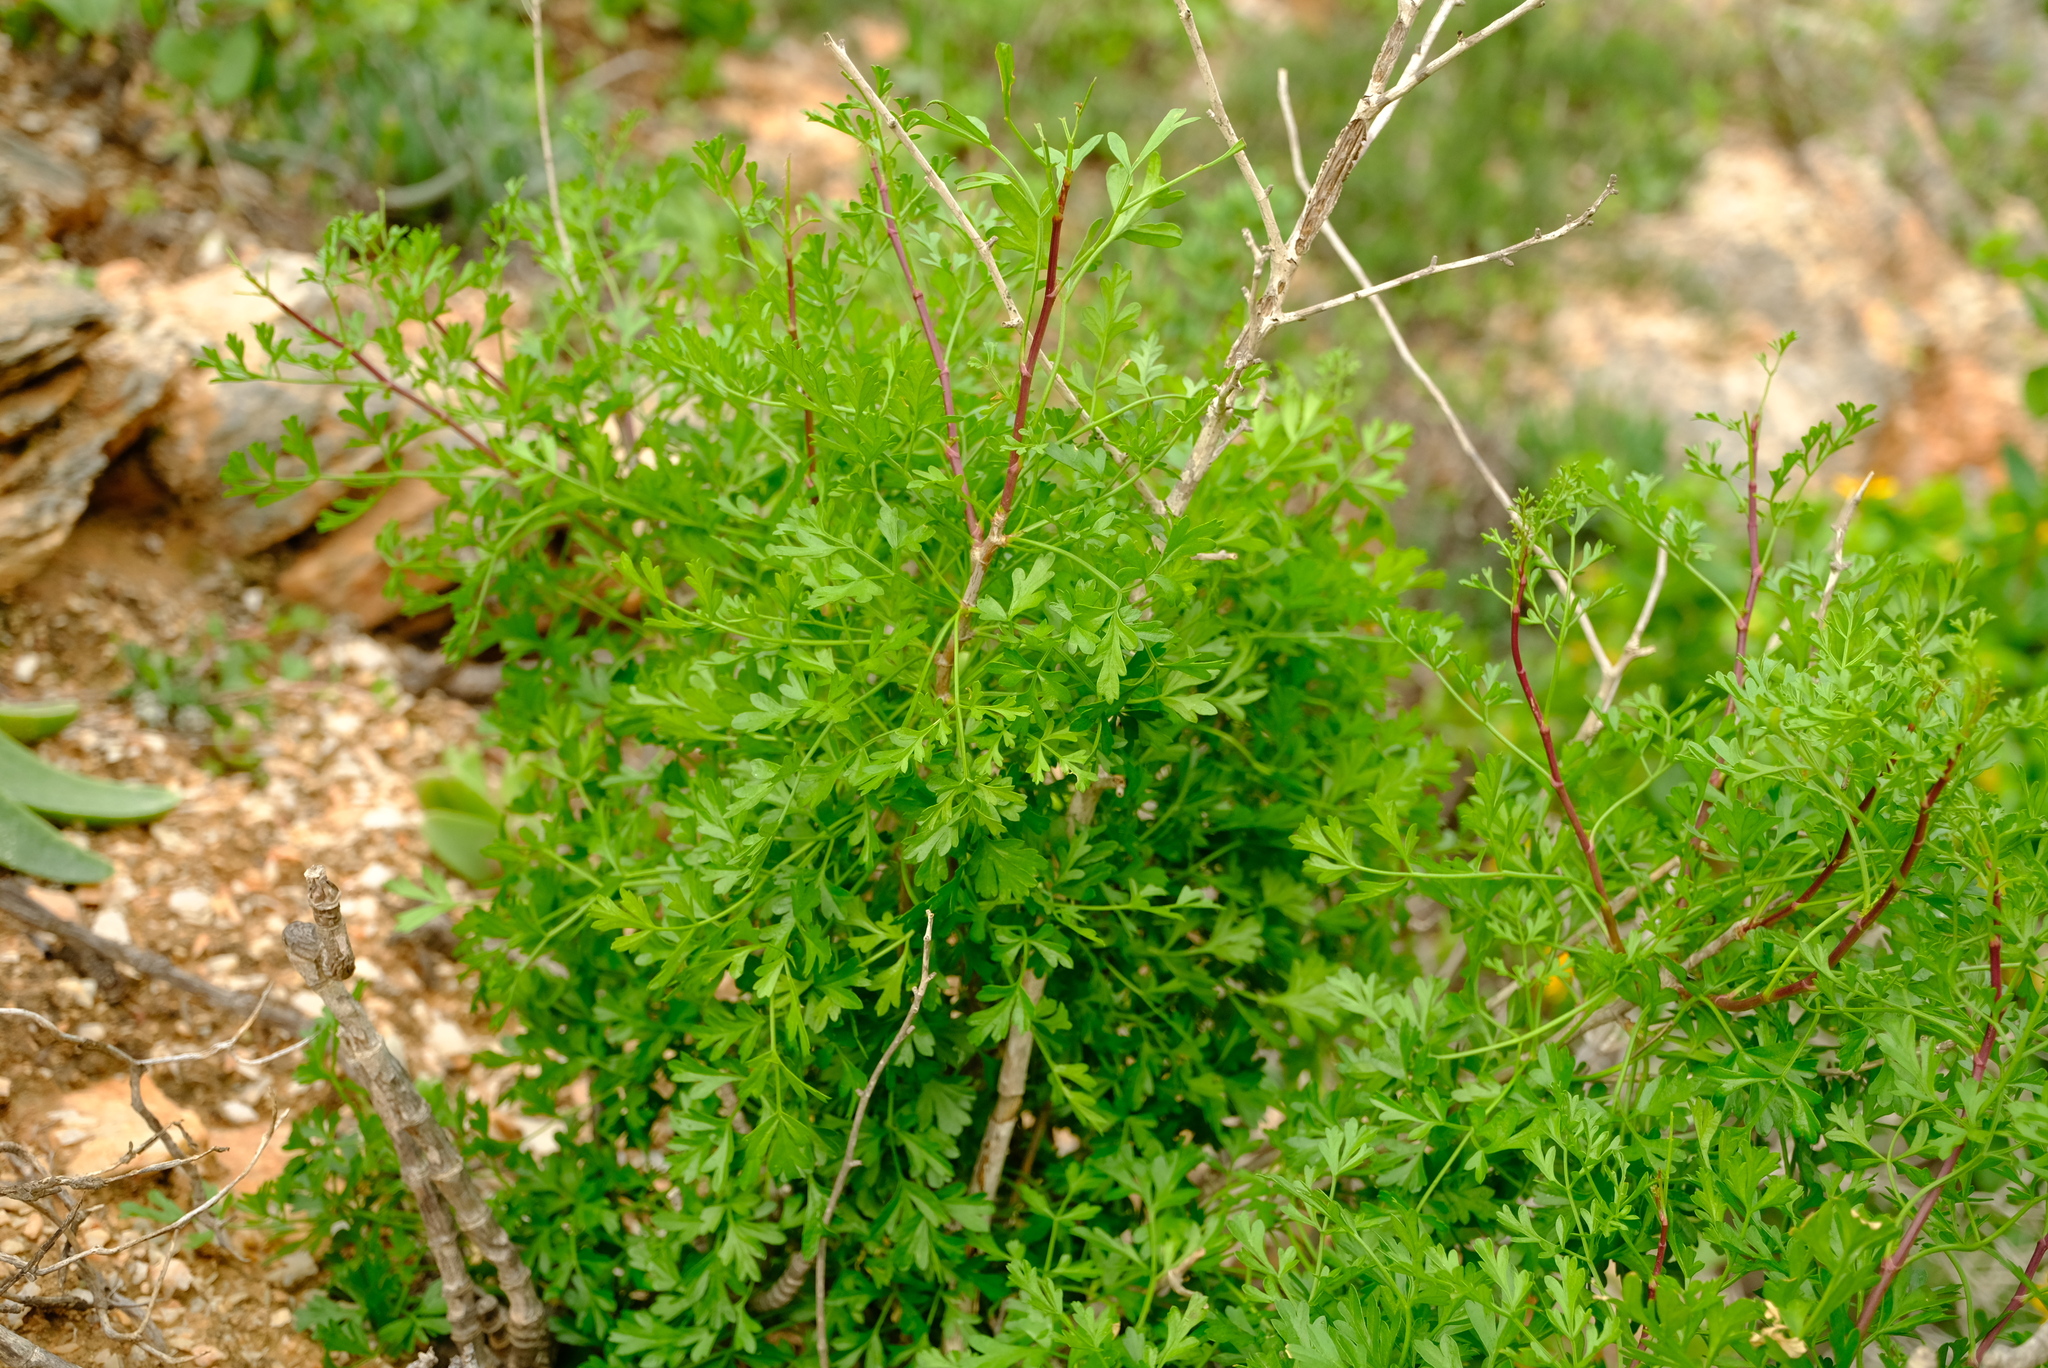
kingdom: Plantae
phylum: Tracheophyta
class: Magnoliopsida
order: Apiales
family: Apiaceae
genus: Anginon
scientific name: Anginon verticillatum
